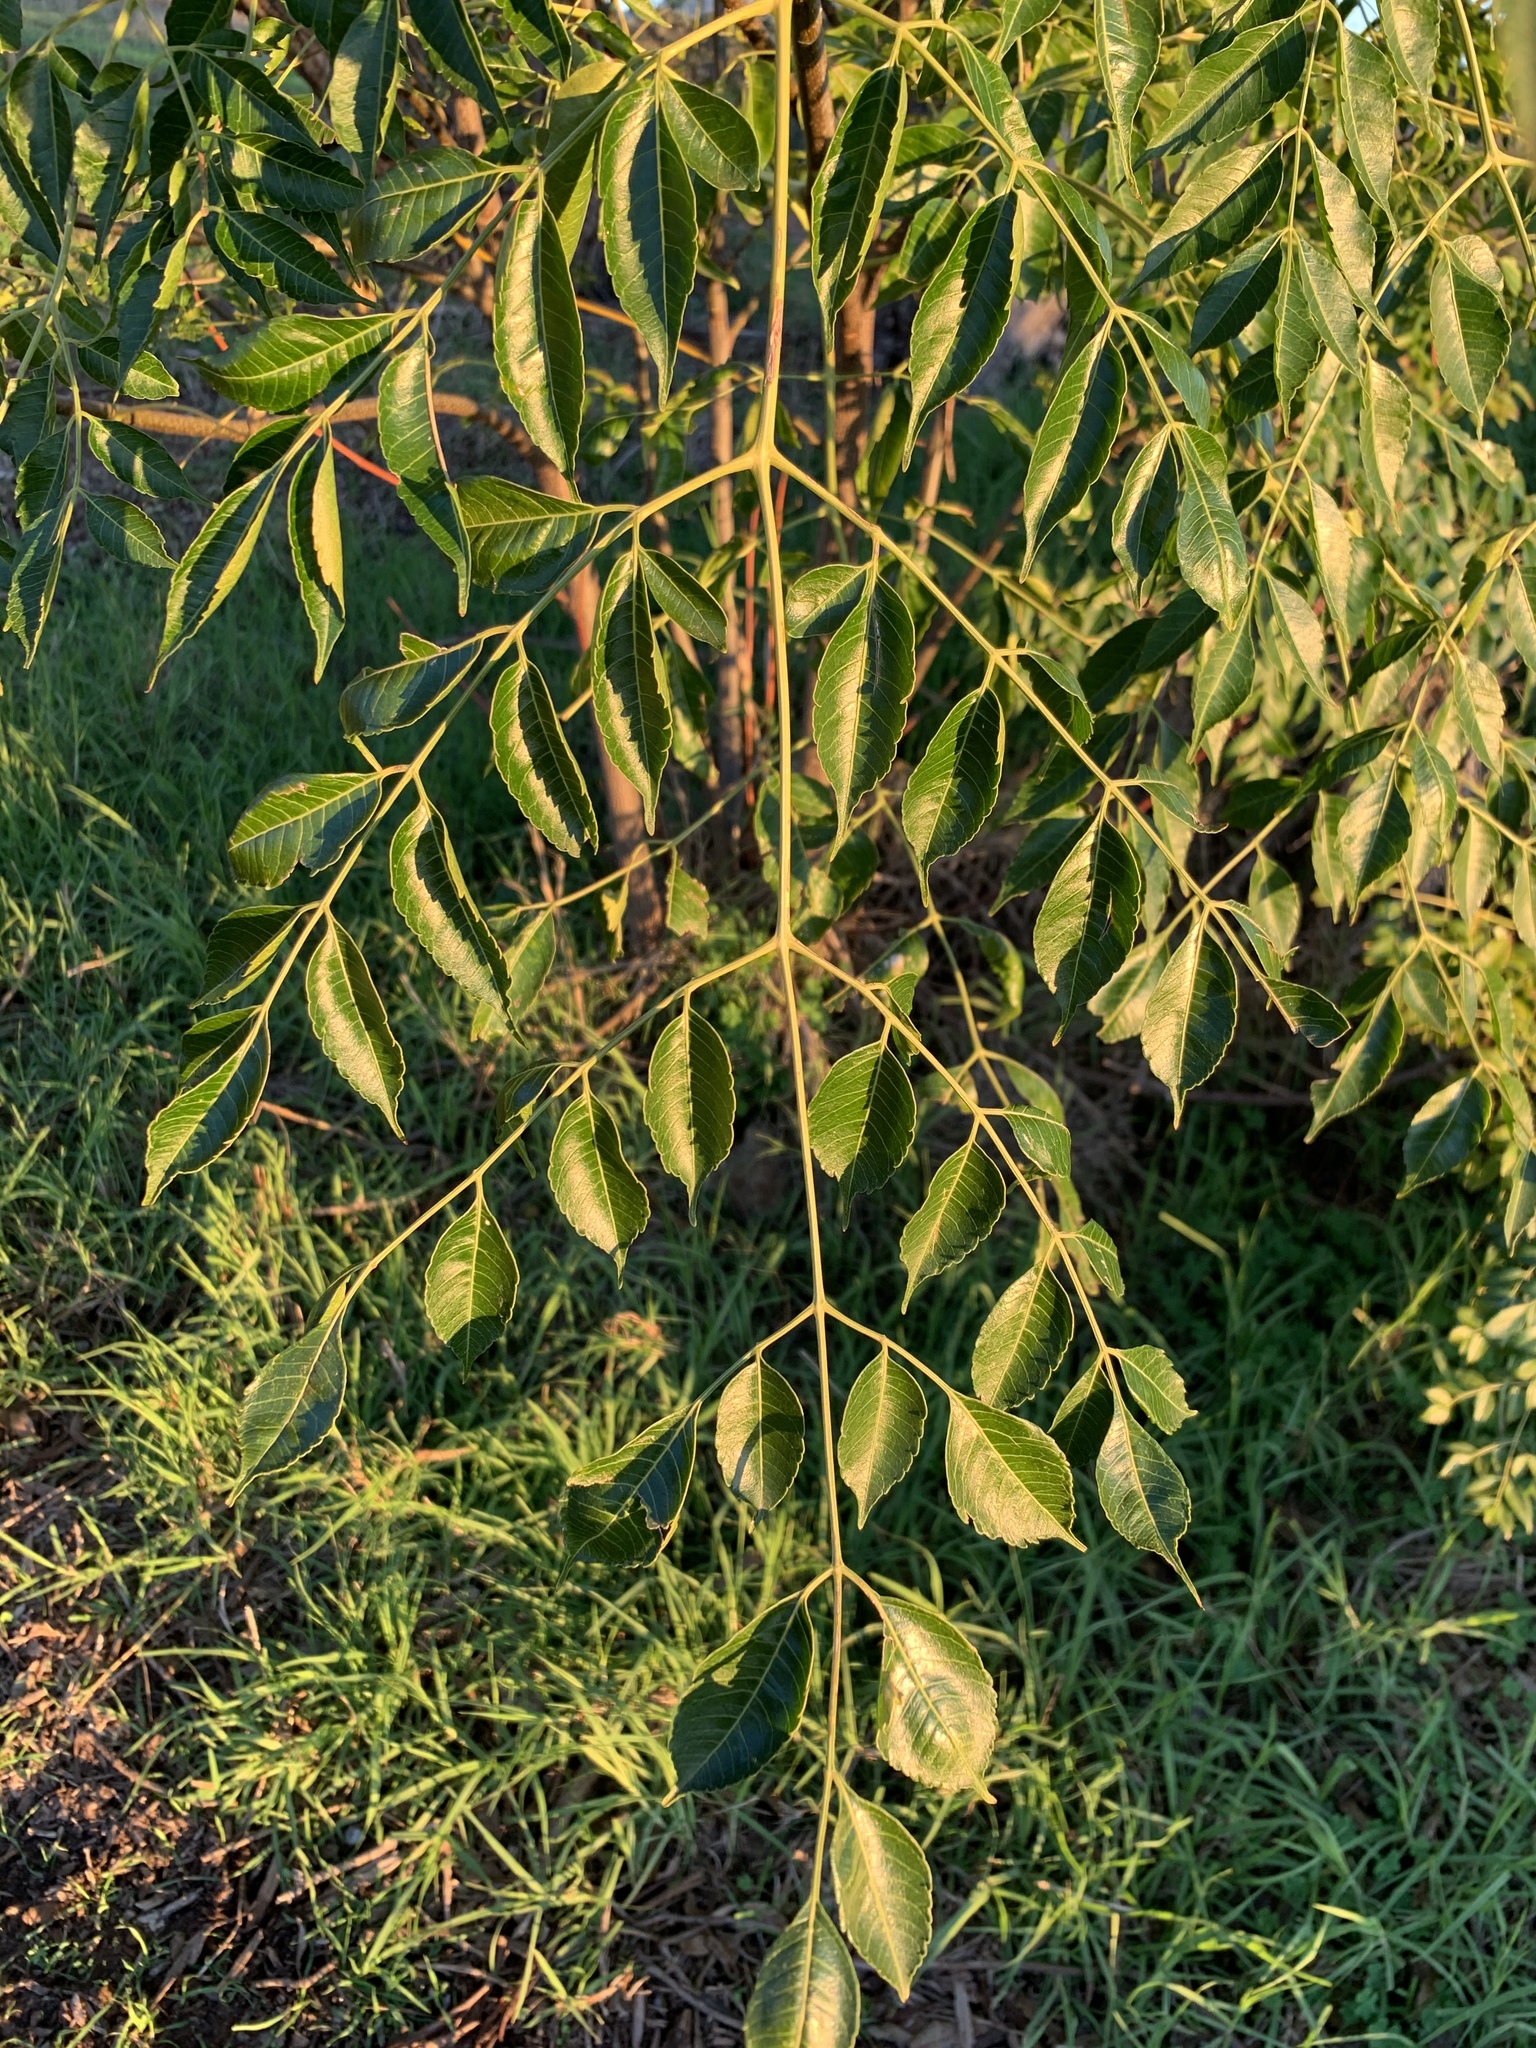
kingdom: Plantae
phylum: Tracheophyta
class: Magnoliopsida
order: Sapindales
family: Meliaceae
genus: Melia
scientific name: Melia azedarach
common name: Chinaberrytree
